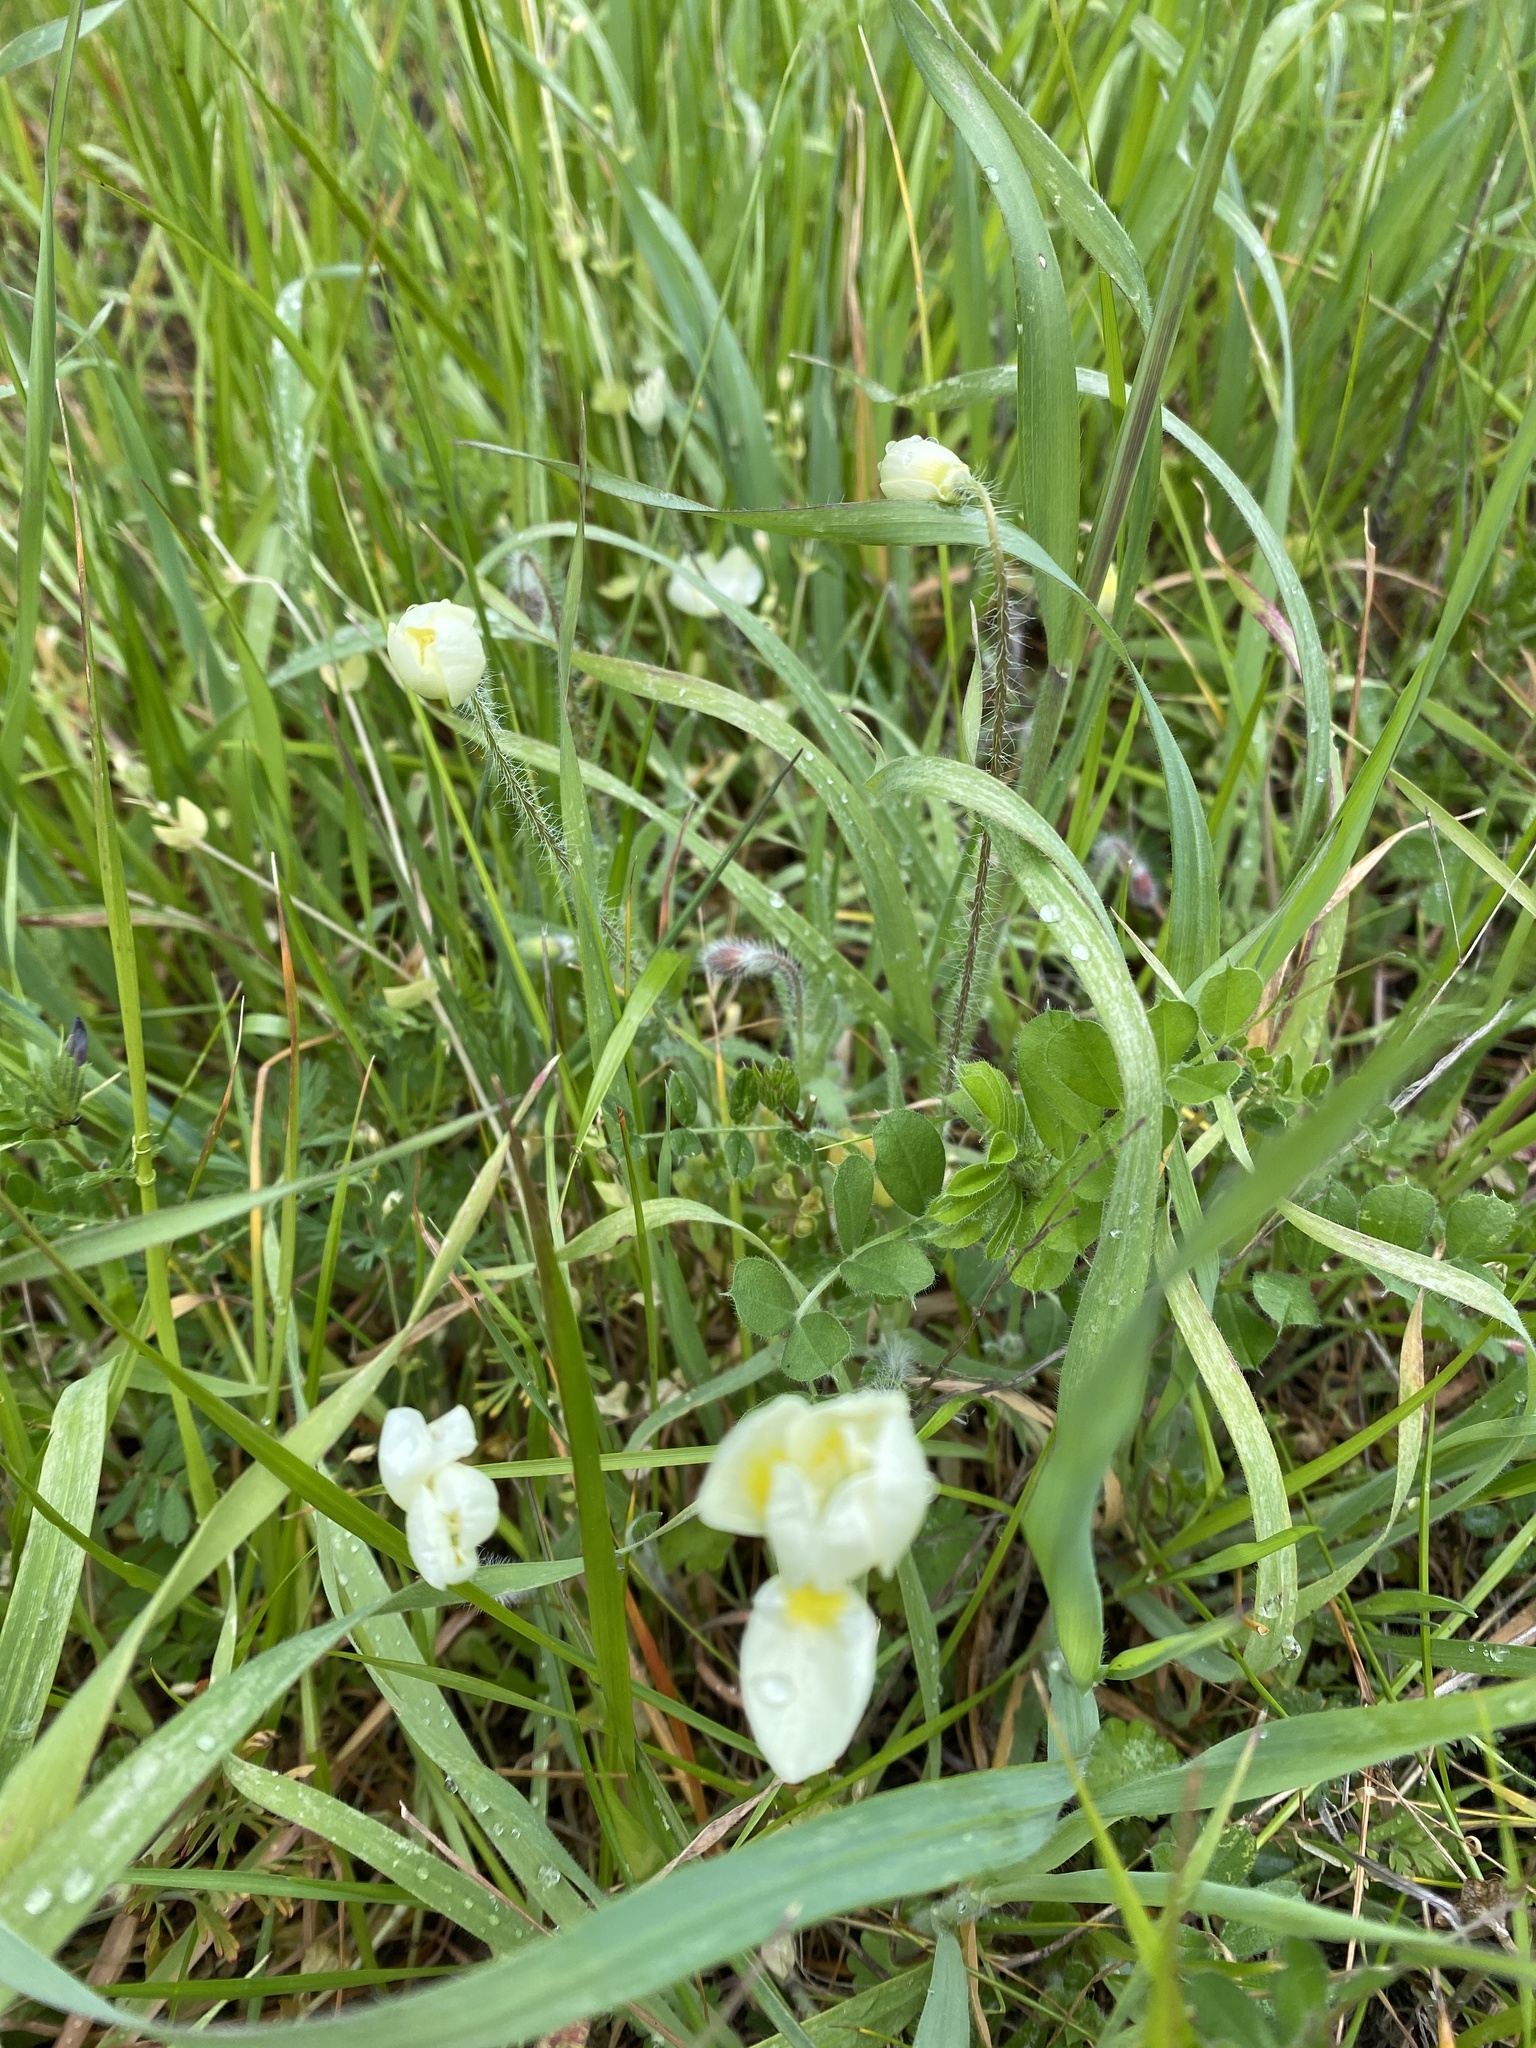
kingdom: Plantae
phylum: Tracheophyta
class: Magnoliopsida
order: Ranunculales
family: Papaveraceae
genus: Platystemon
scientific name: Platystemon californicus
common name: Cream-cups
